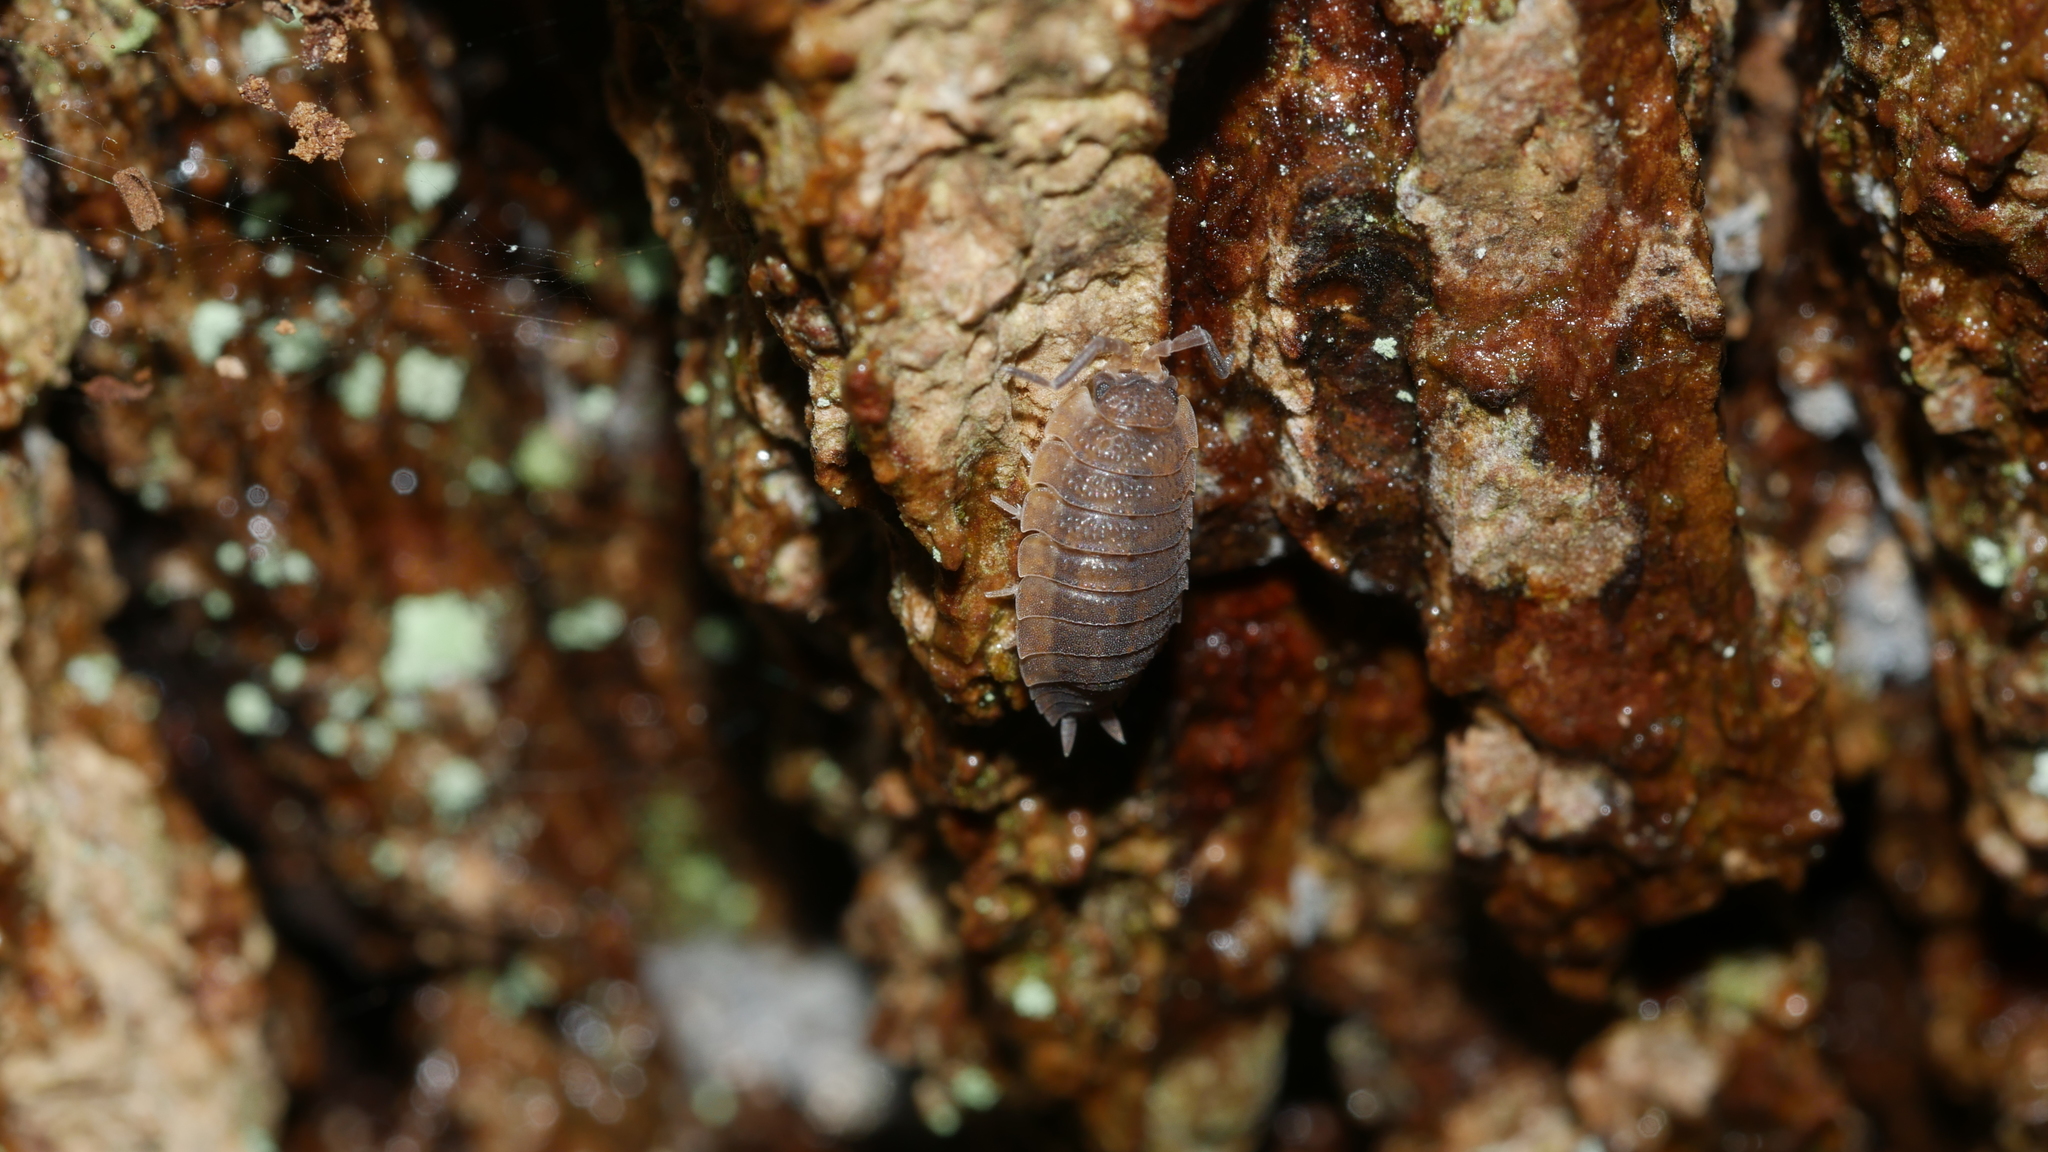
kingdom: Animalia
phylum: Arthropoda
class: Malacostraca
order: Isopoda
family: Porcellionidae
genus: Porcellio
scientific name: Porcellio scaber
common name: Common rough woodlouse
